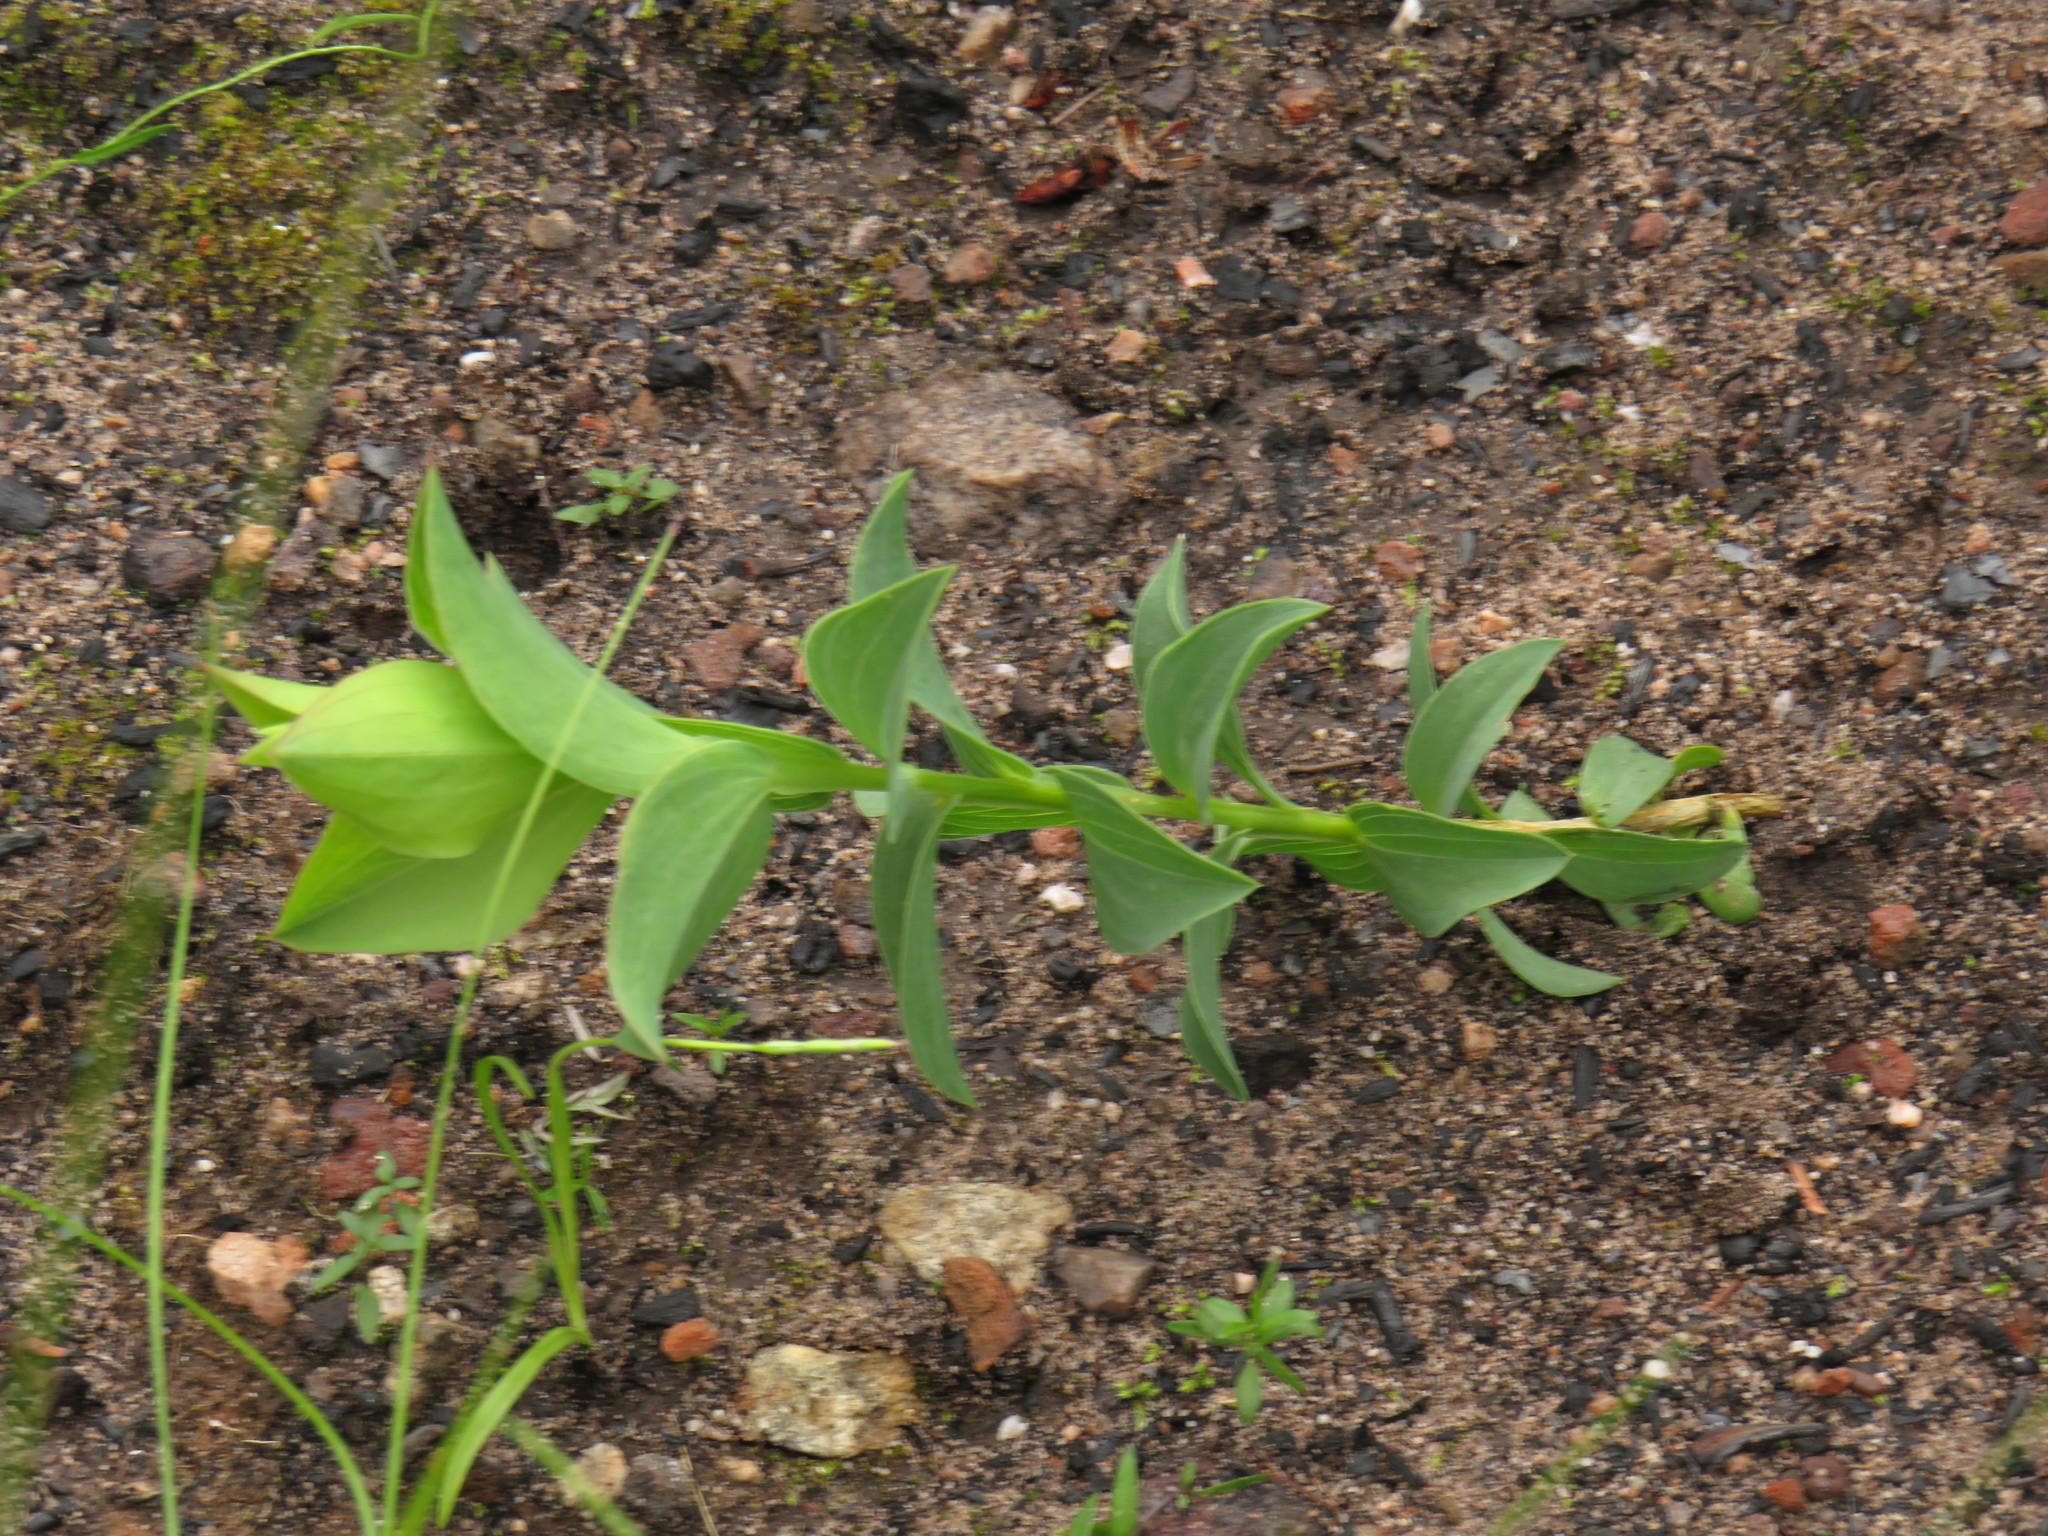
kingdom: Plantae
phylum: Tracheophyta
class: Magnoliopsida
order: Fabales
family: Fabaceae
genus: Aspalathus
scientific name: Aspalathus crenata
